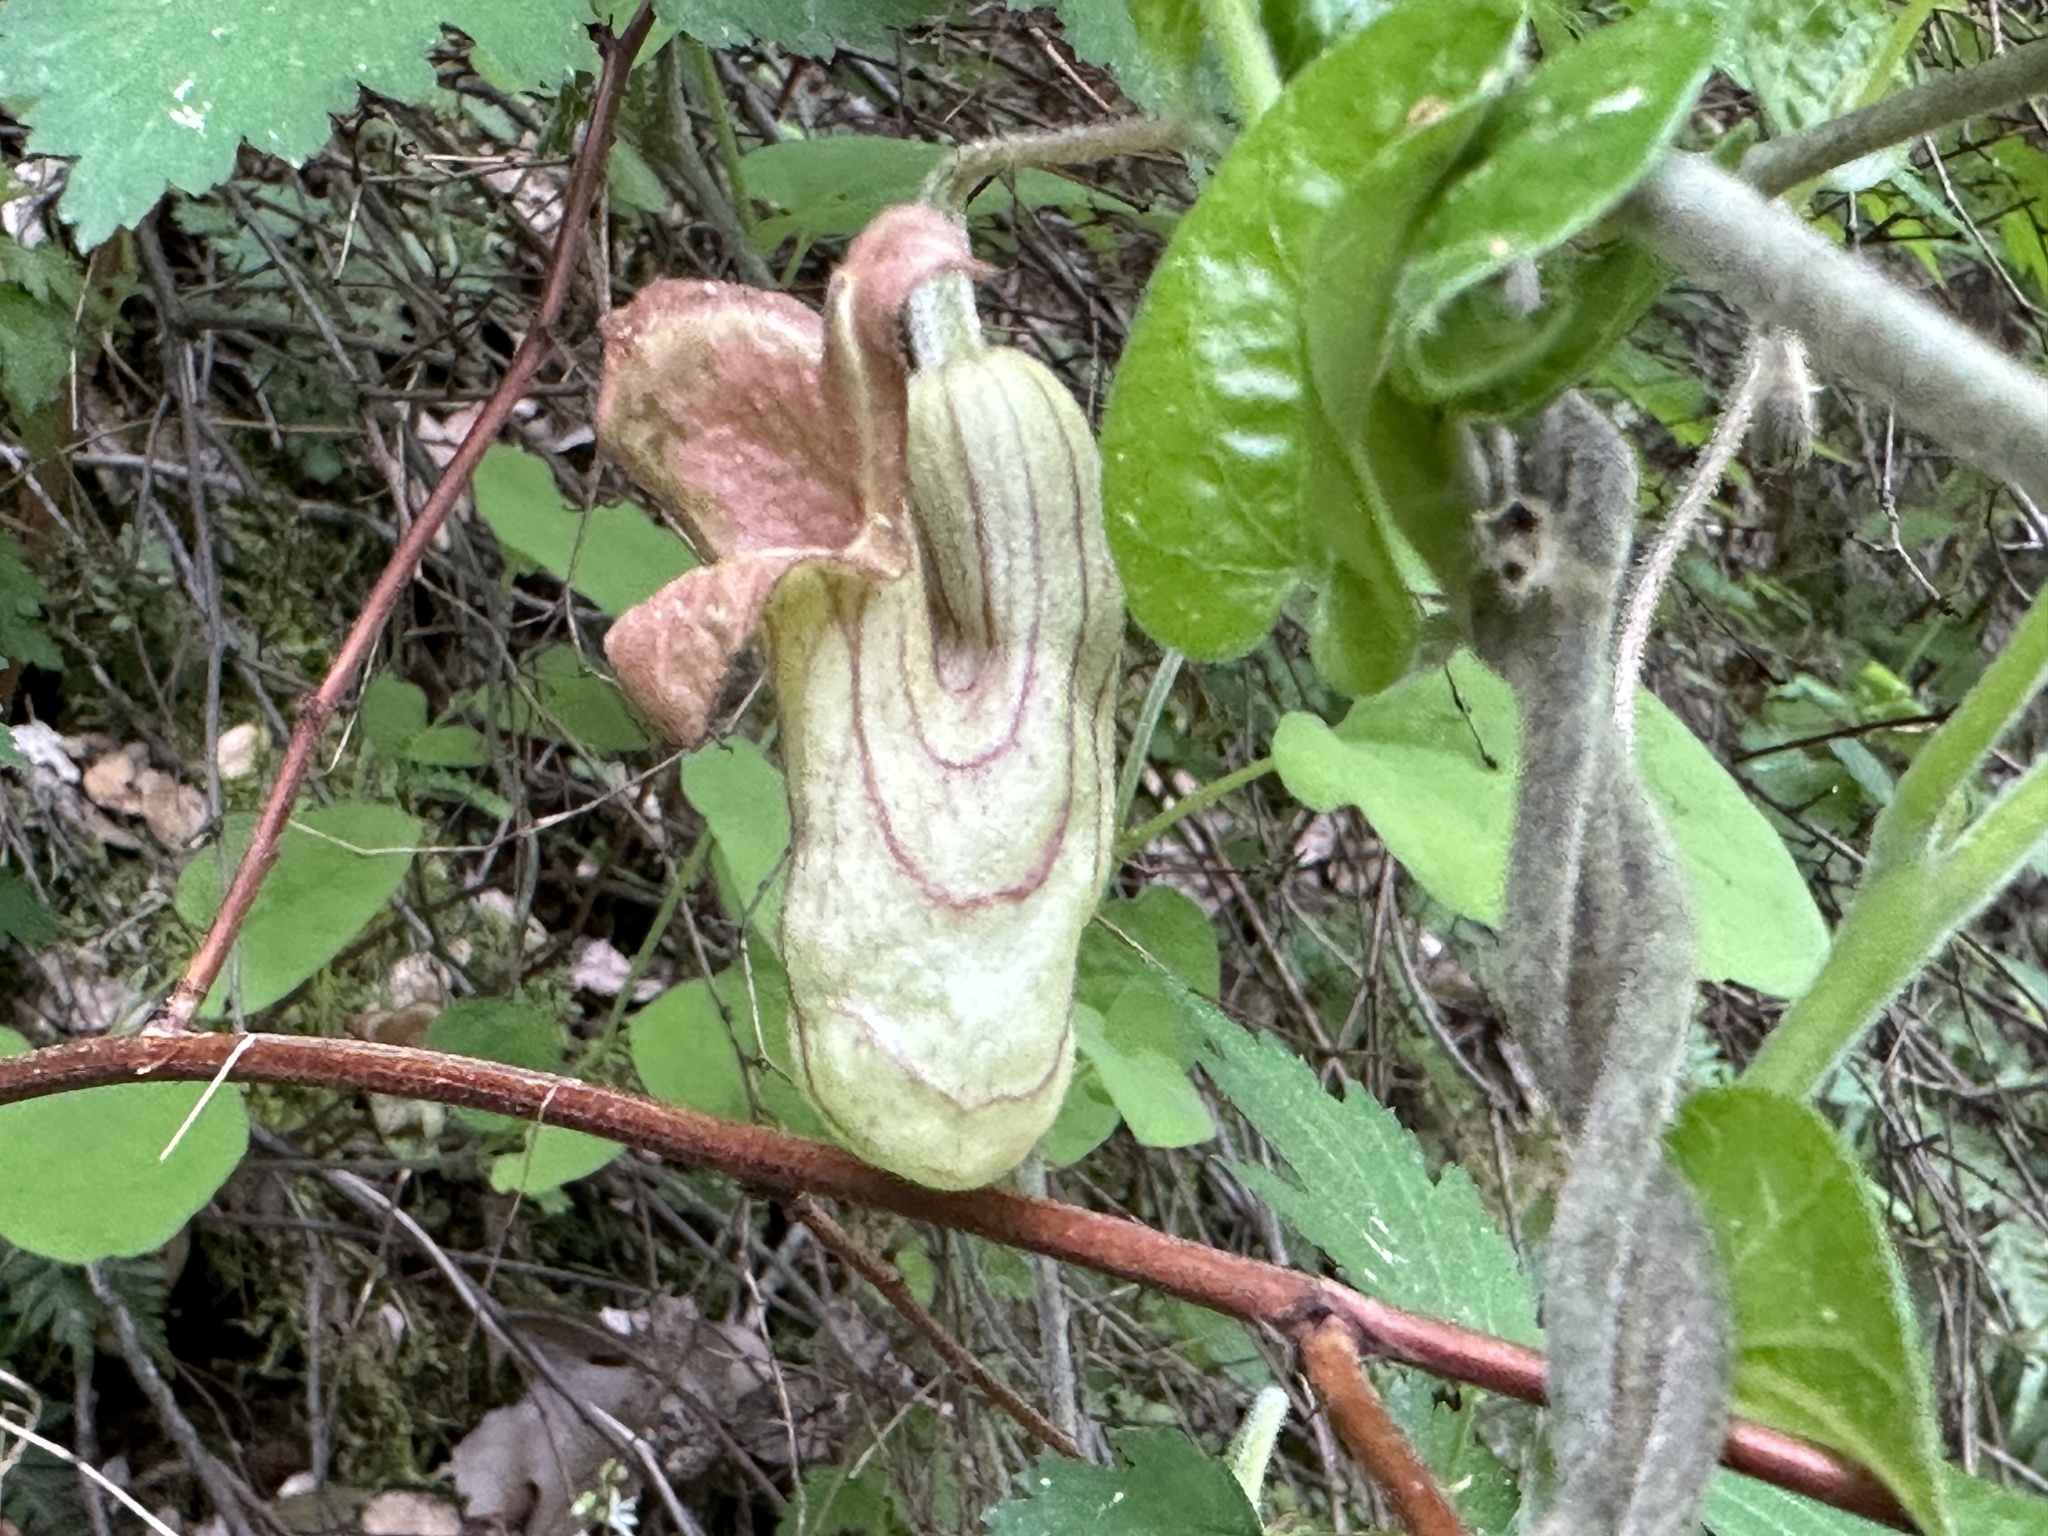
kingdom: Plantae
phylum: Tracheophyta
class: Magnoliopsida
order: Piperales
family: Aristolochiaceae
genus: Isotrema
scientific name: Isotrema californicum
